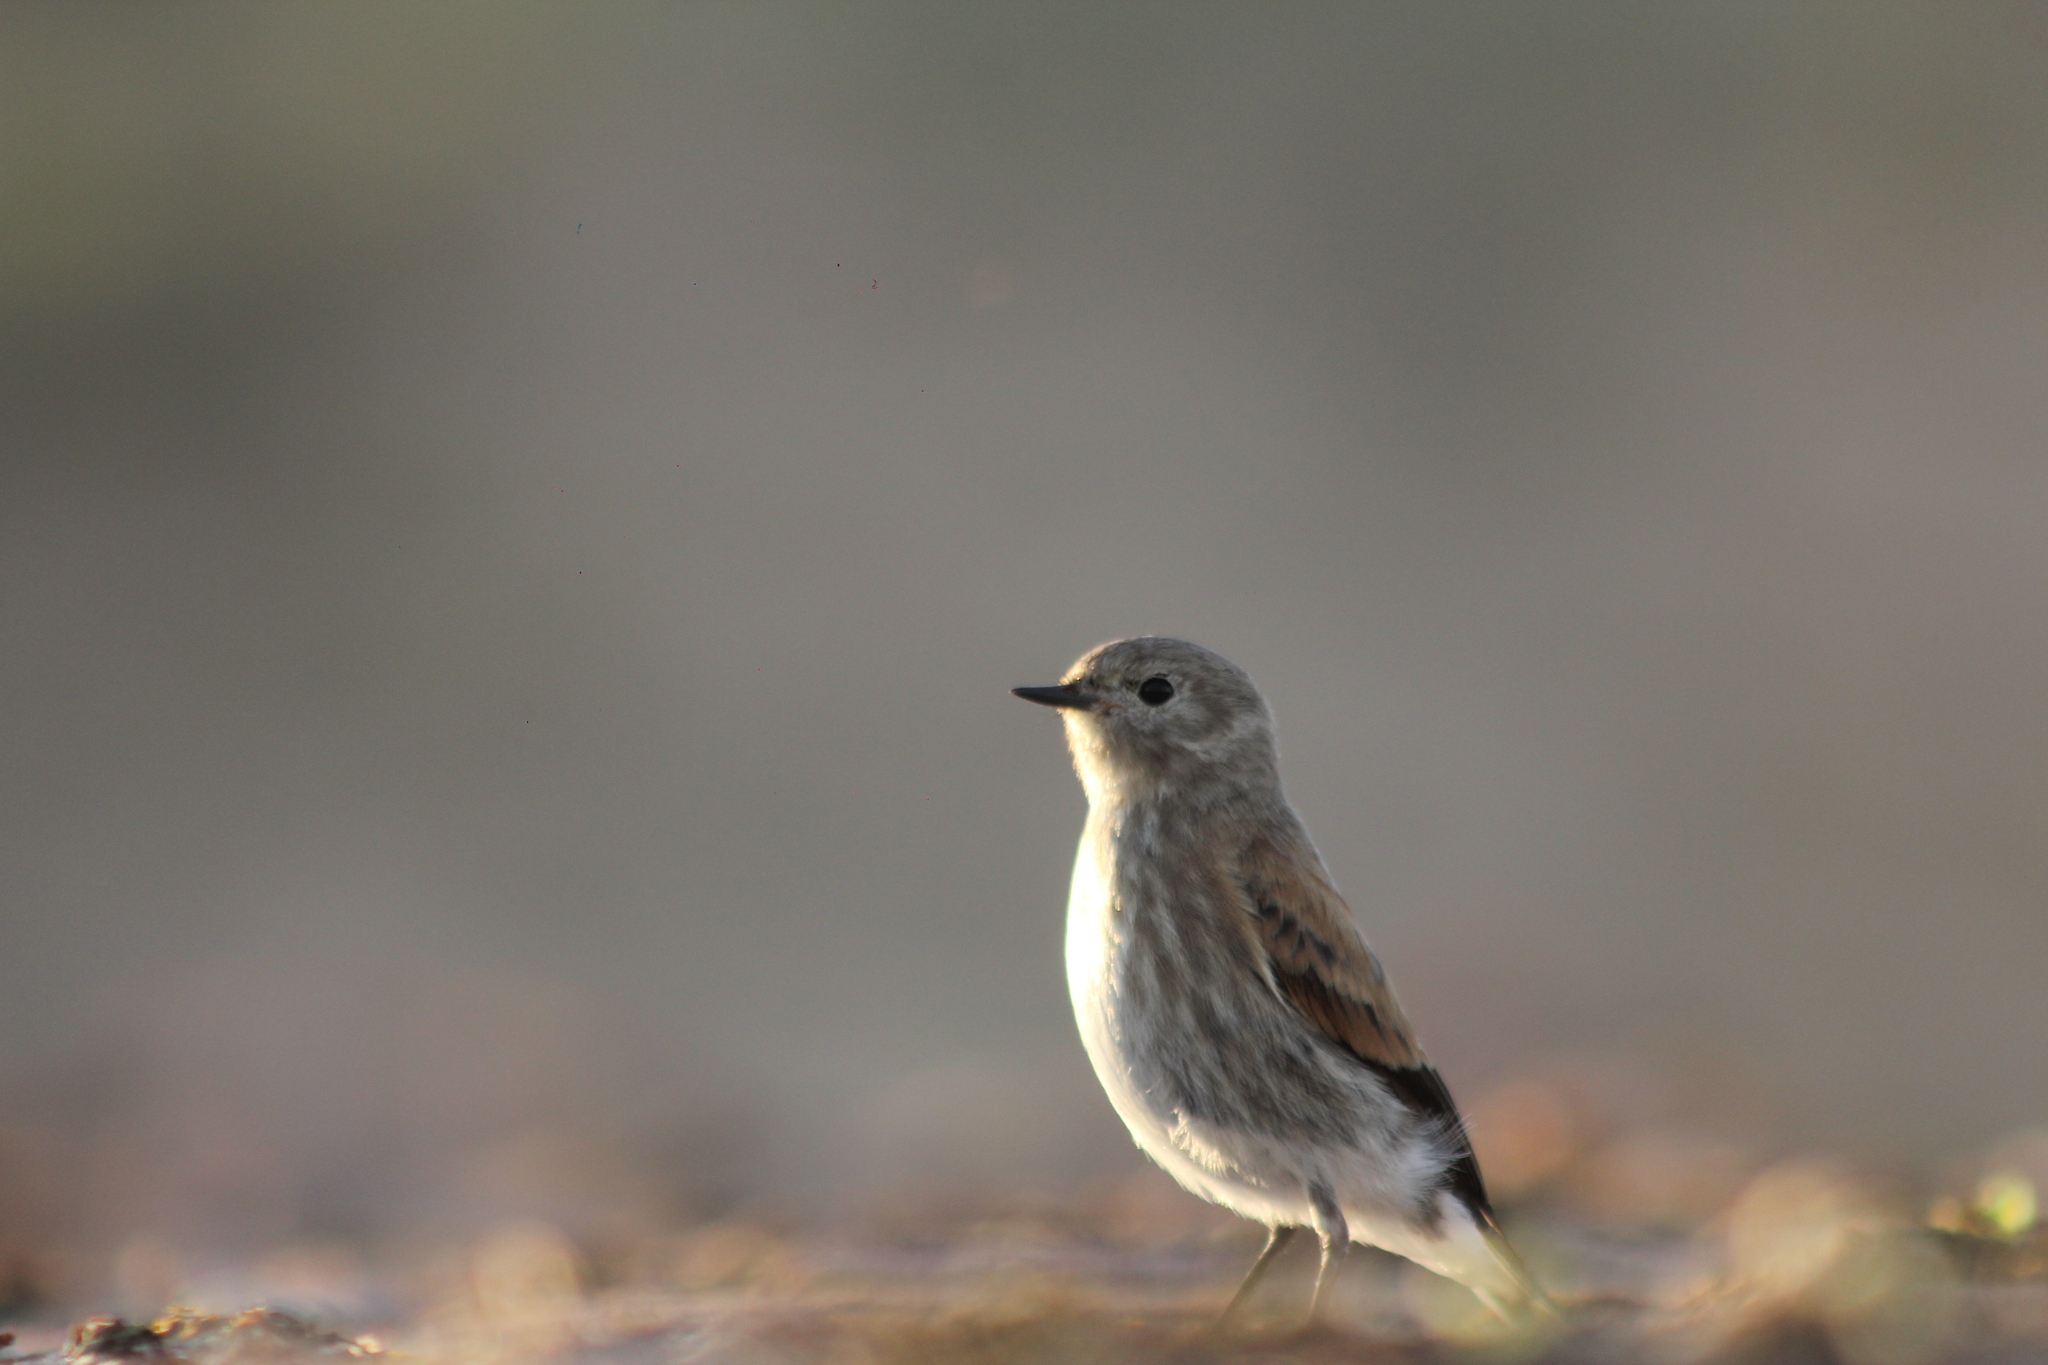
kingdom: Animalia
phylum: Chordata
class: Aves
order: Passeriformes
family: Tyrannidae
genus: Lessonia
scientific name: Lessonia rufa
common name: Austral negrito
